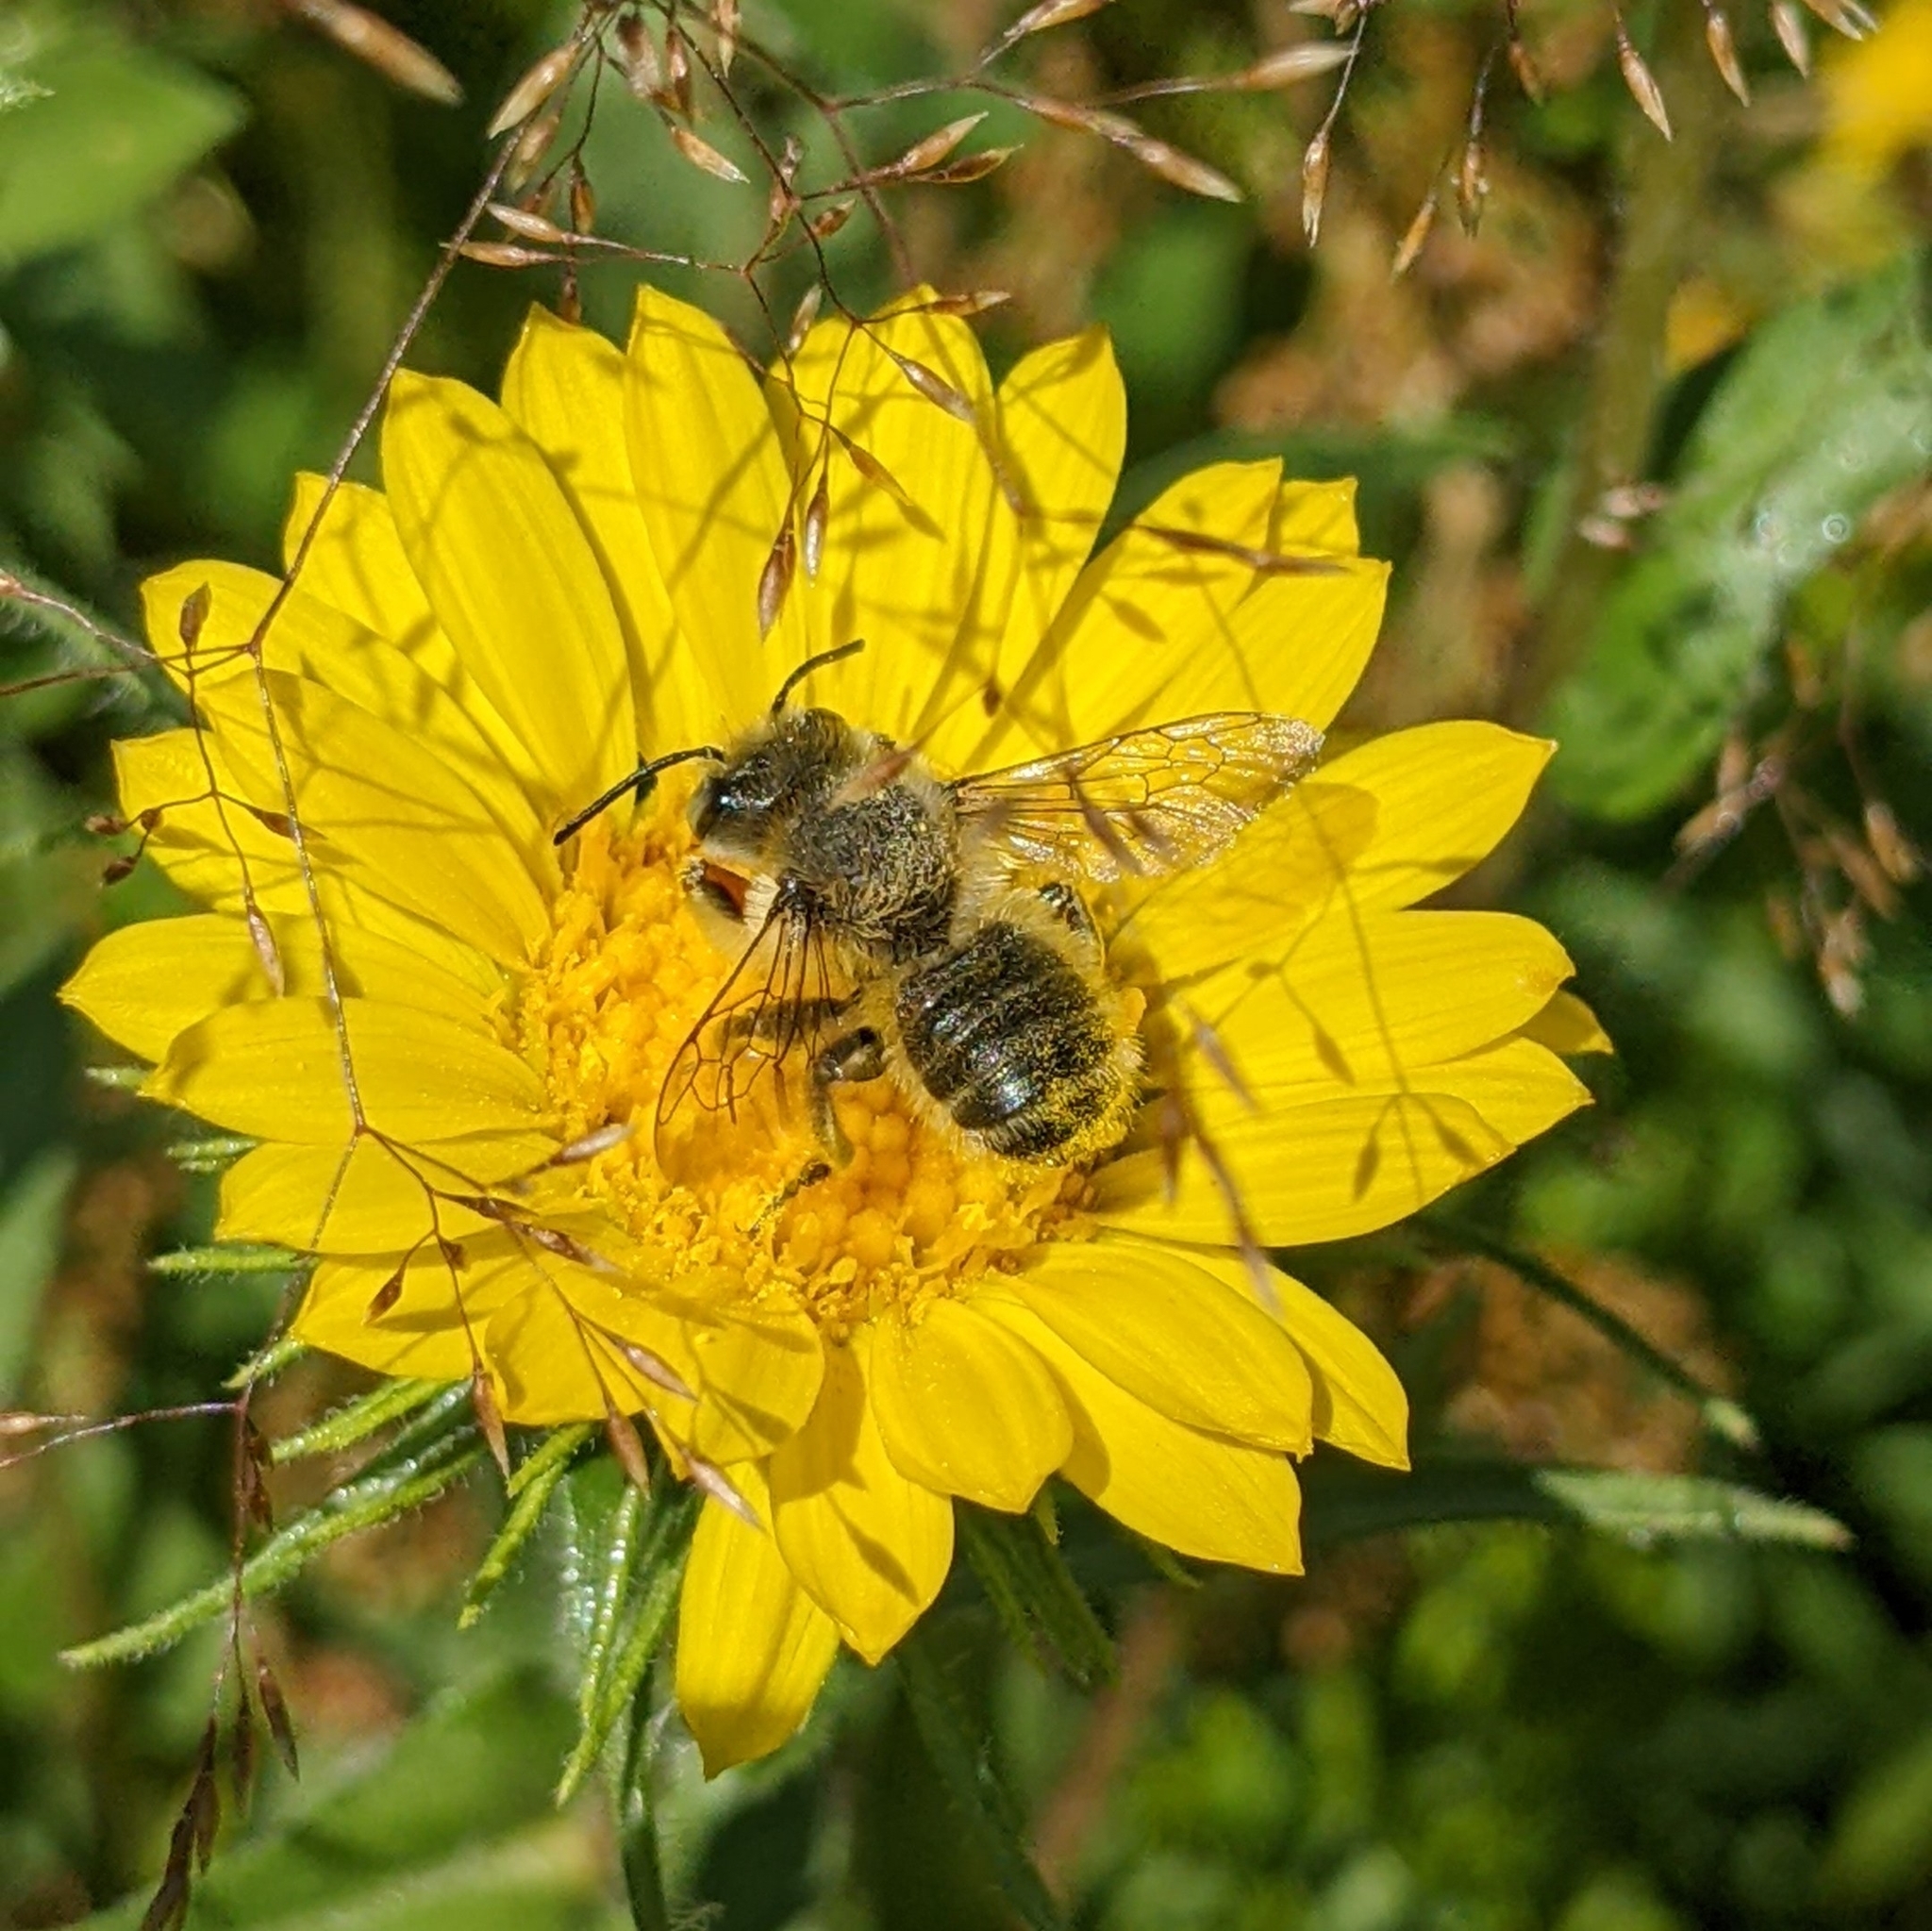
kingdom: Animalia
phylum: Arthropoda
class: Insecta
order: Hymenoptera
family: Megachilidae
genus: Megachile
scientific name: Megachile perihirta
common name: Western leafcutter
